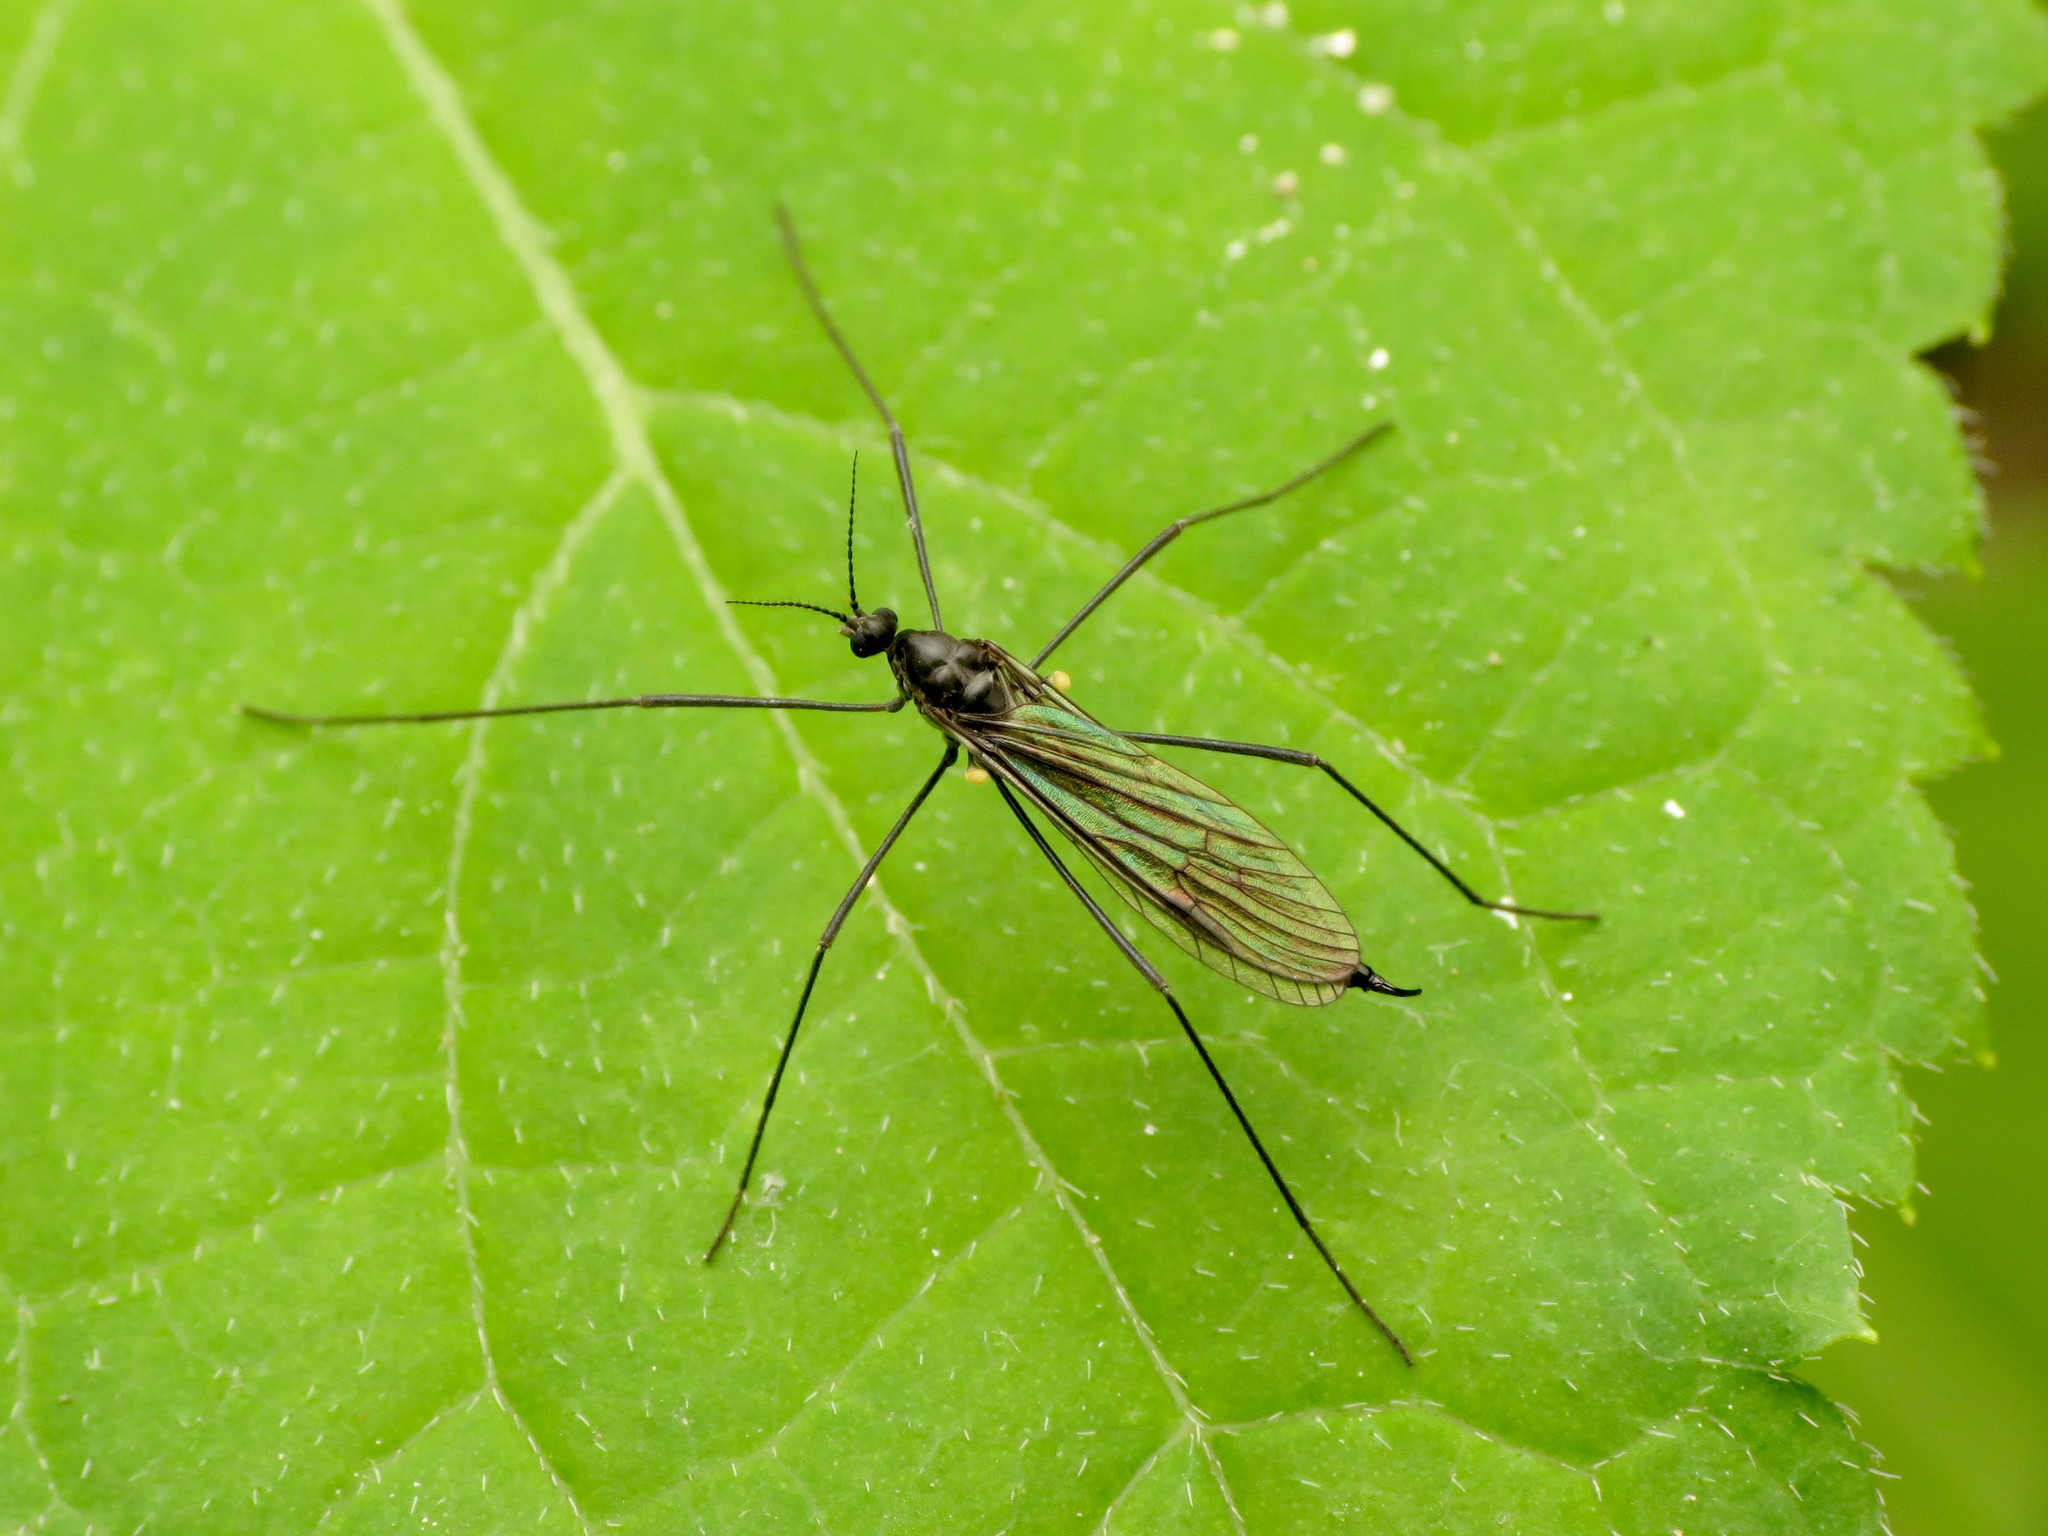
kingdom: Animalia
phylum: Arthropoda
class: Insecta
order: Diptera
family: Limoniidae
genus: Gnophomyia
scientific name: Gnophomyia tristissima
